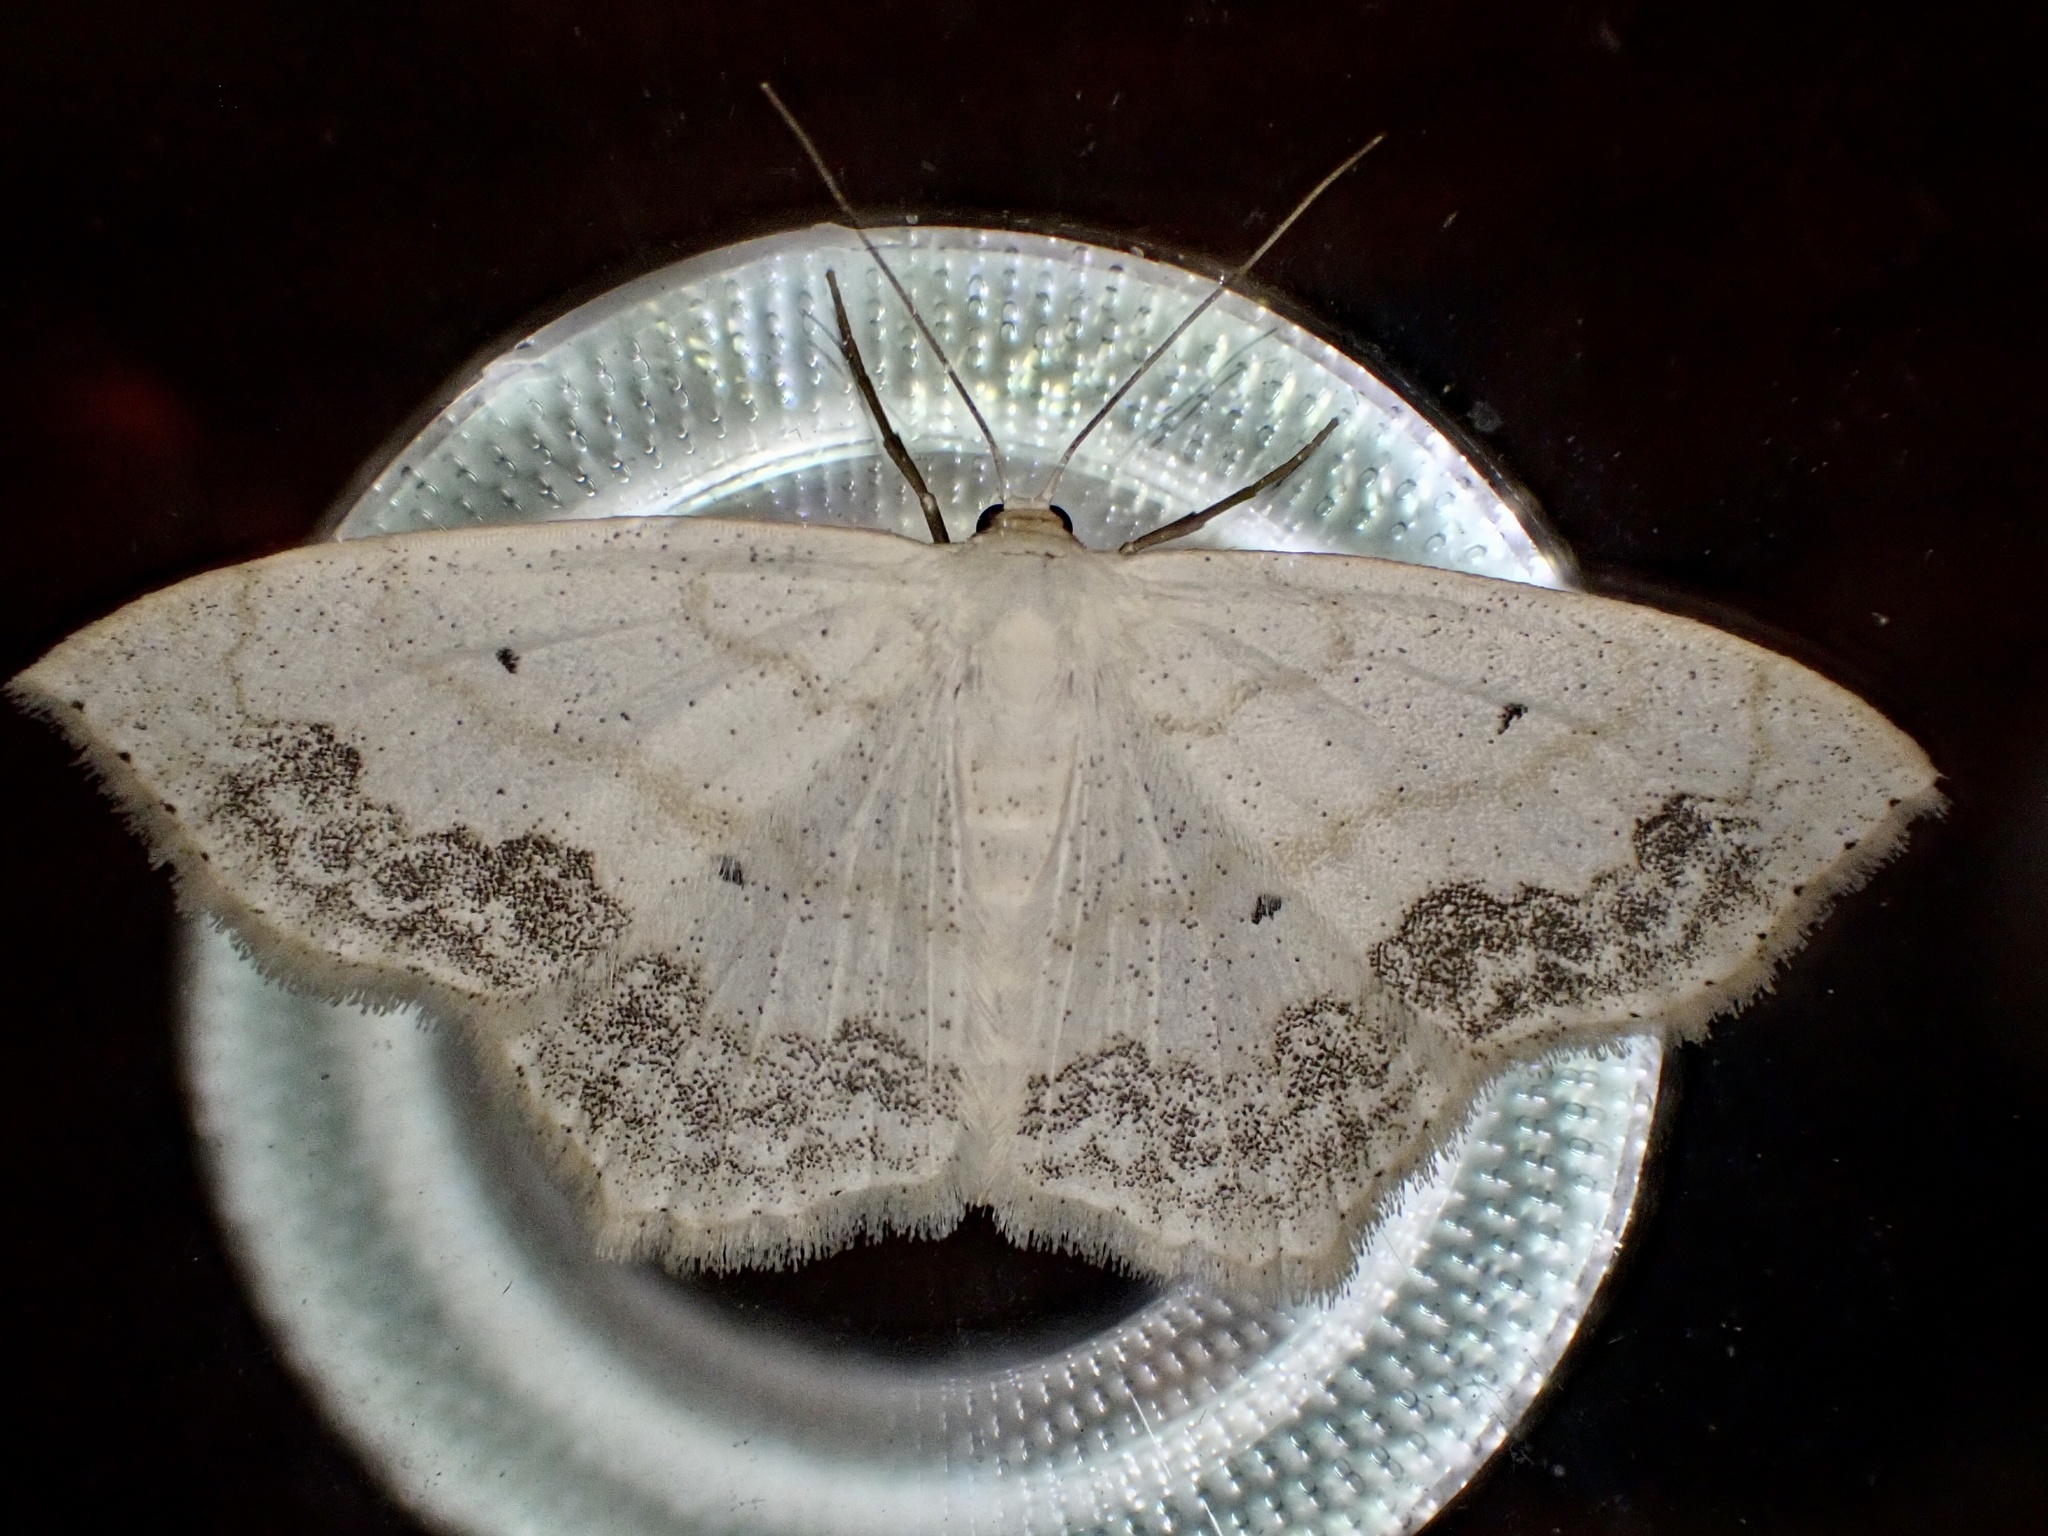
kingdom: Animalia
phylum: Arthropoda
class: Insecta
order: Lepidoptera
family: Geometridae
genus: Scopula
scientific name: Scopula limboundata
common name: Large lace border
